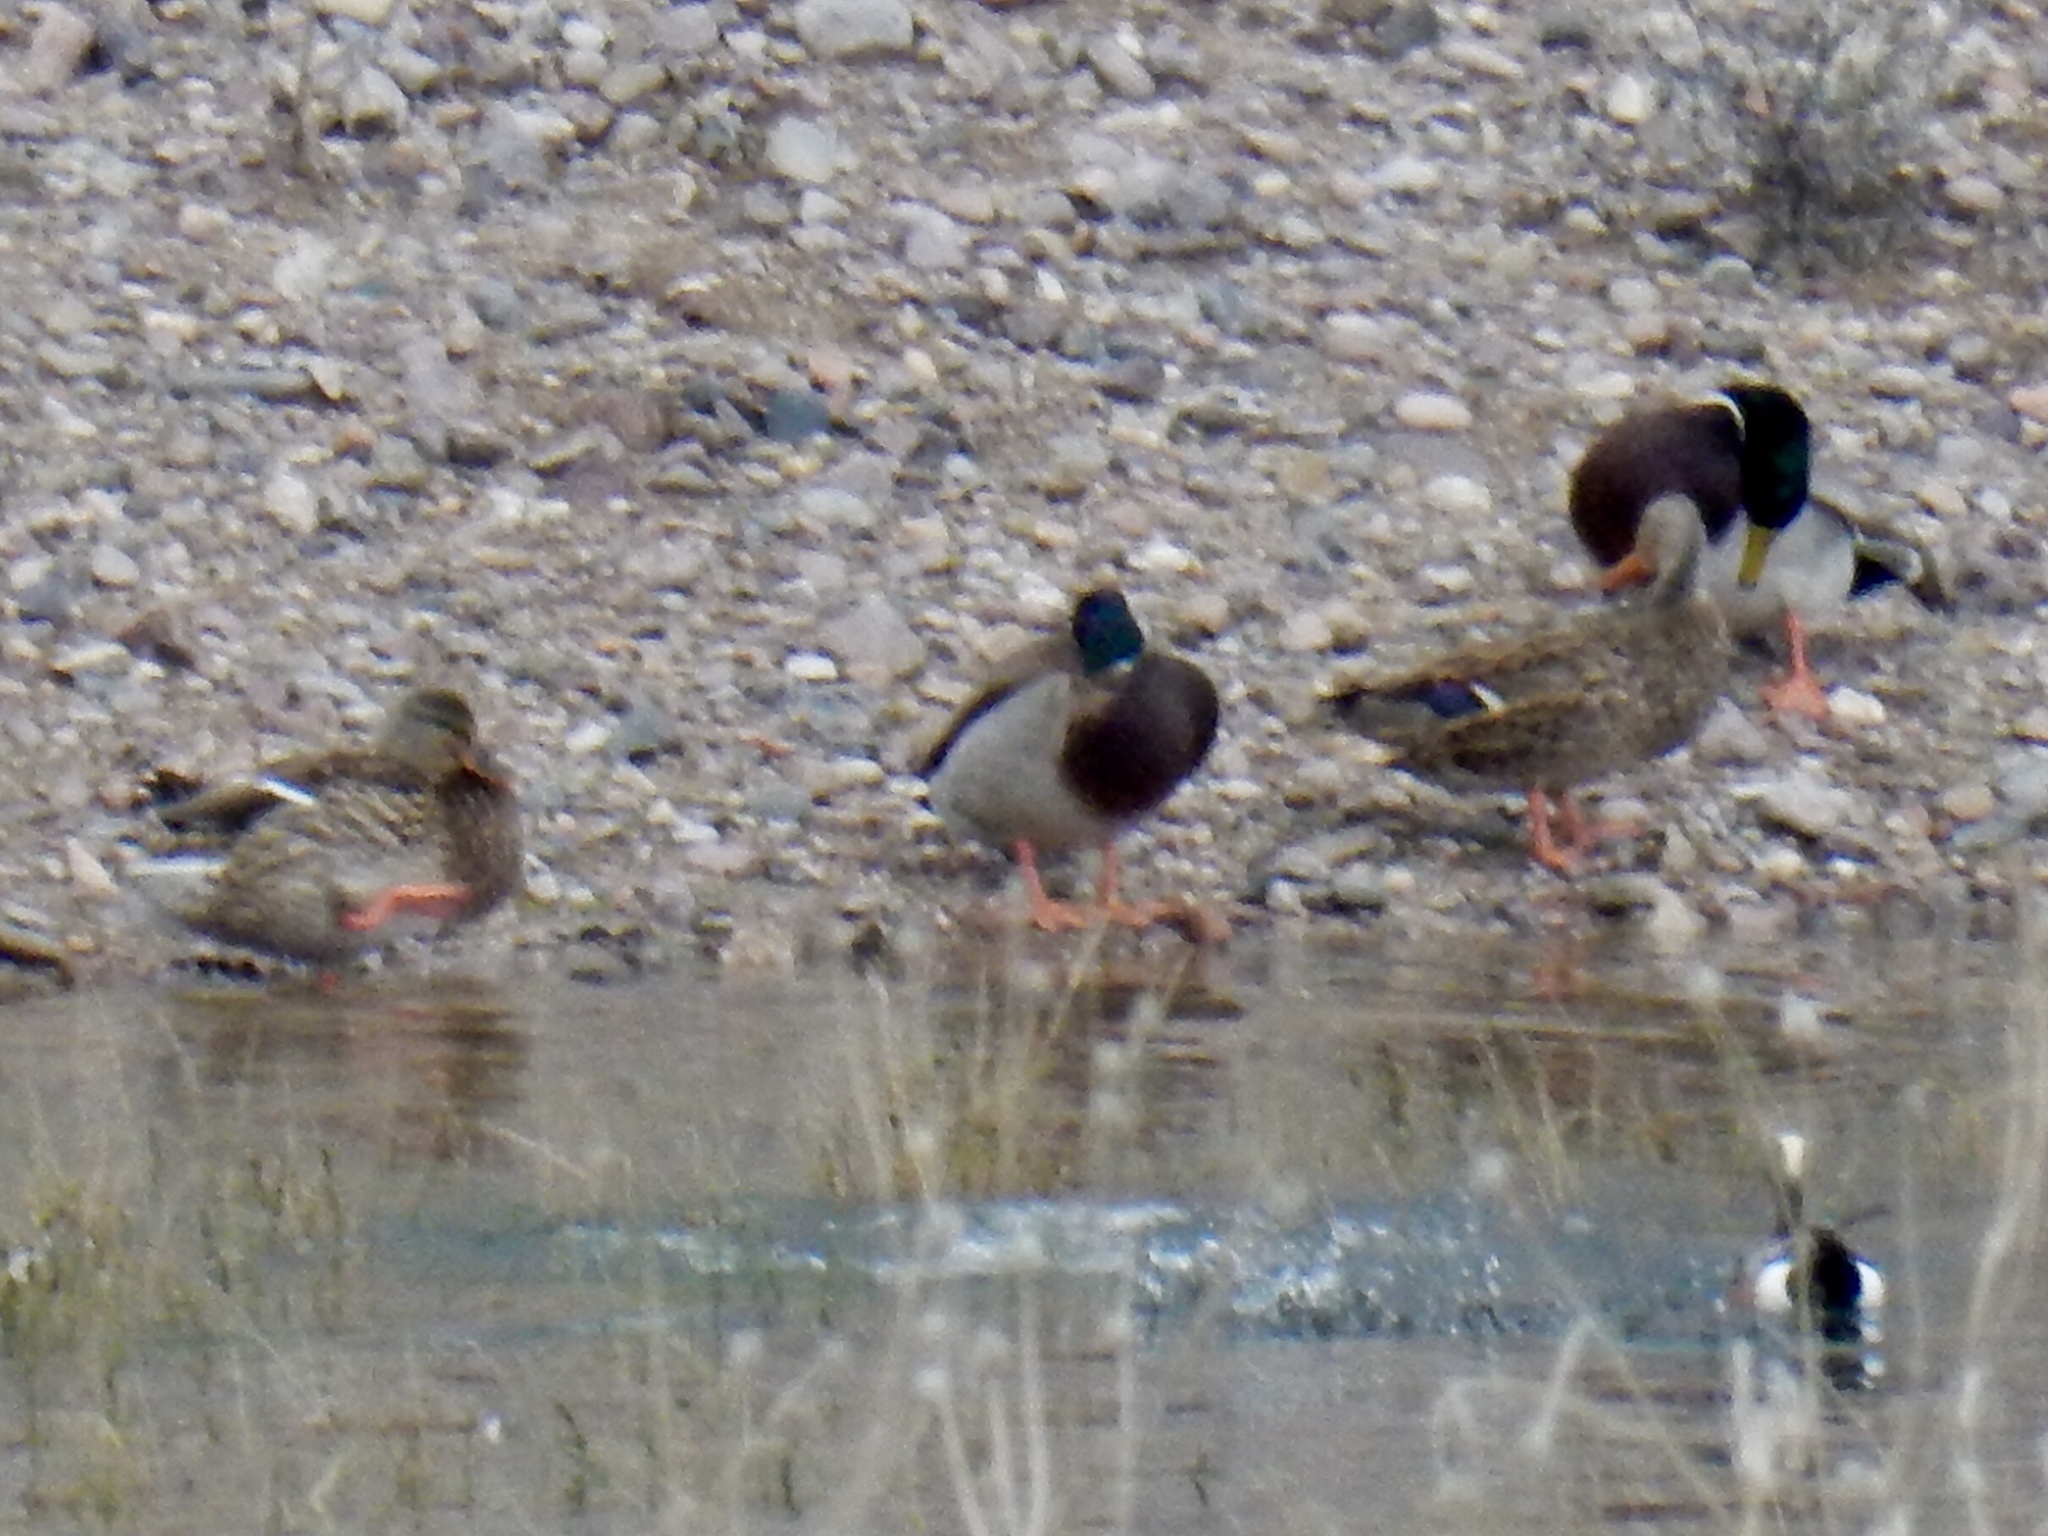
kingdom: Animalia
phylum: Chordata
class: Aves
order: Anseriformes
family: Anatidae
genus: Anas
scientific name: Anas platyrhynchos
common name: Mallard
